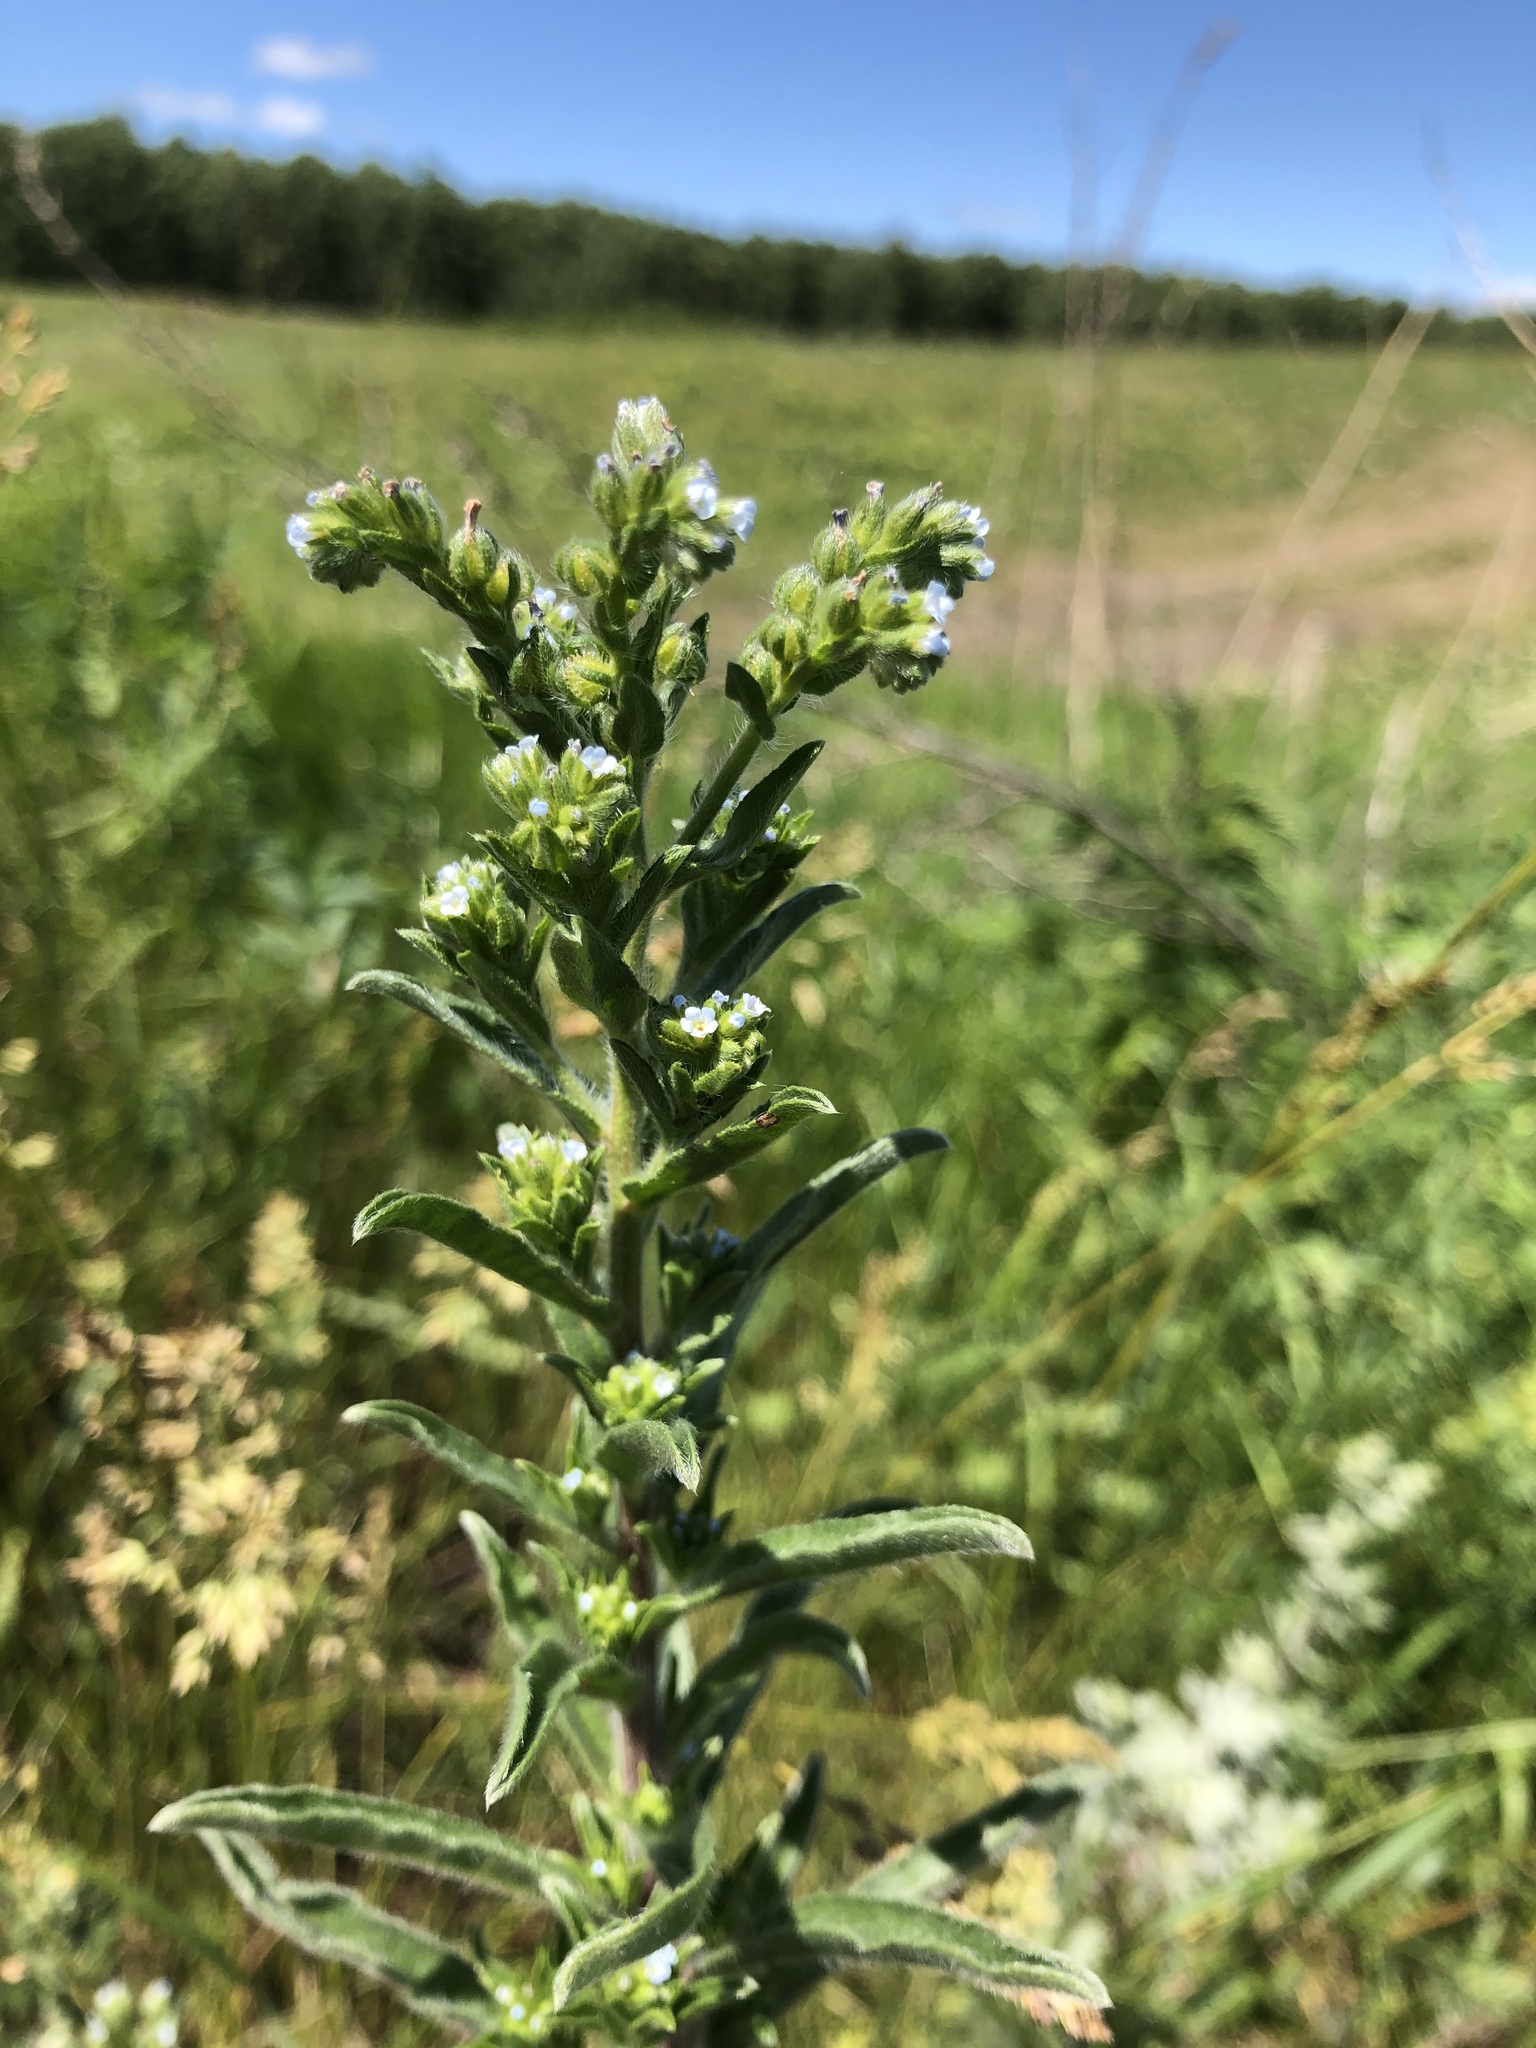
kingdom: Plantae
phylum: Tracheophyta
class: Magnoliopsida
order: Boraginales
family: Boraginaceae
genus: Lappula
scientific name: Lappula squarrosa
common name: European stickseed
